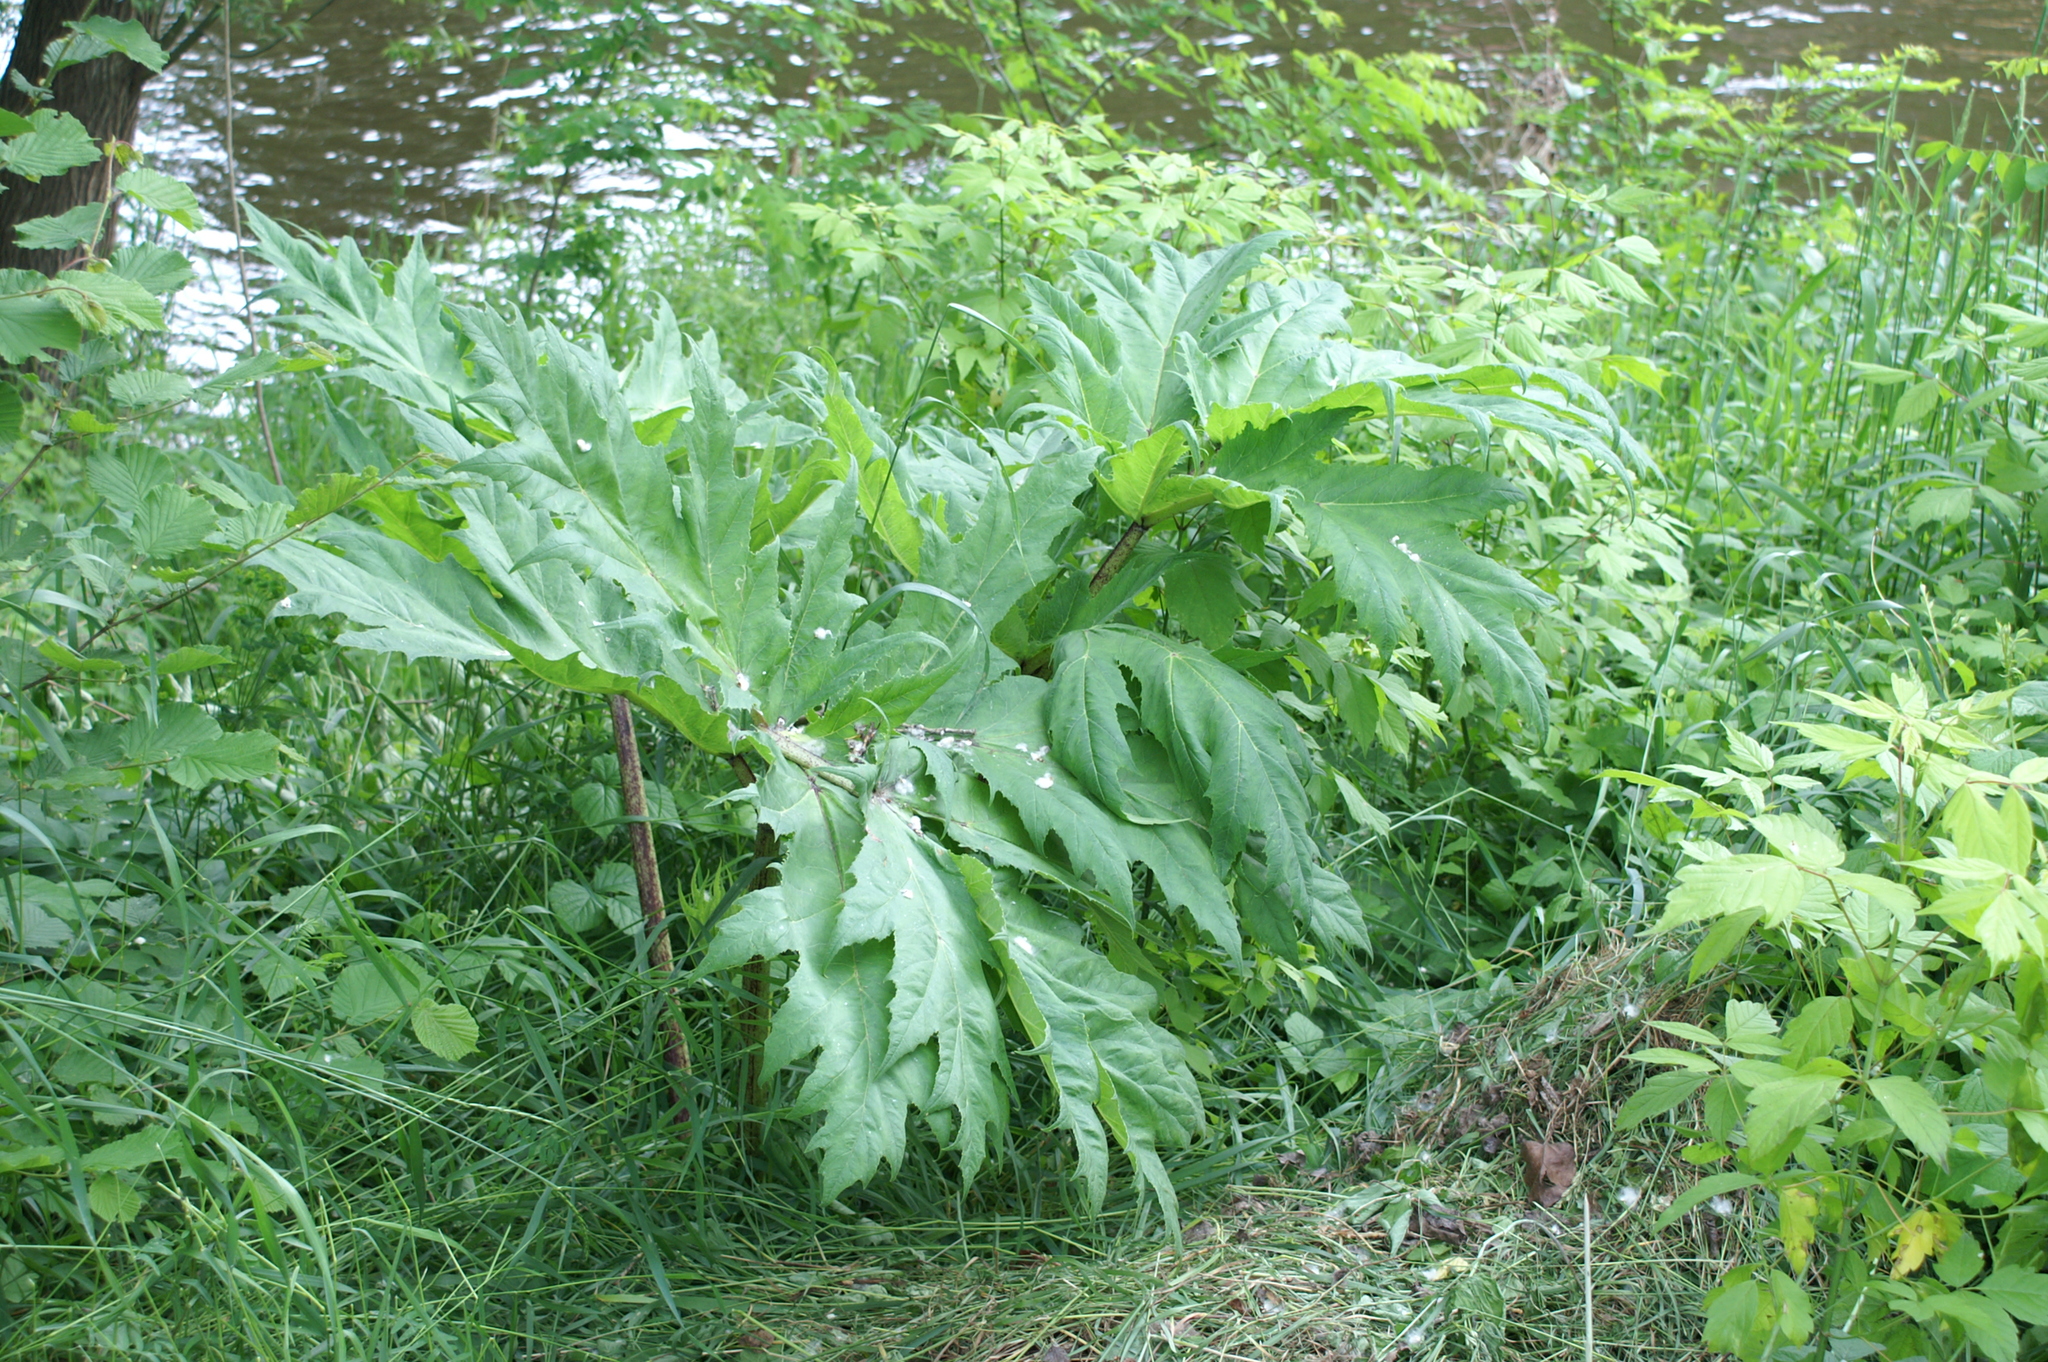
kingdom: Plantae
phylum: Tracheophyta
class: Magnoliopsida
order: Apiales
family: Apiaceae
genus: Heracleum
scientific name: Heracleum mantegazzianum
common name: Giant hogweed
